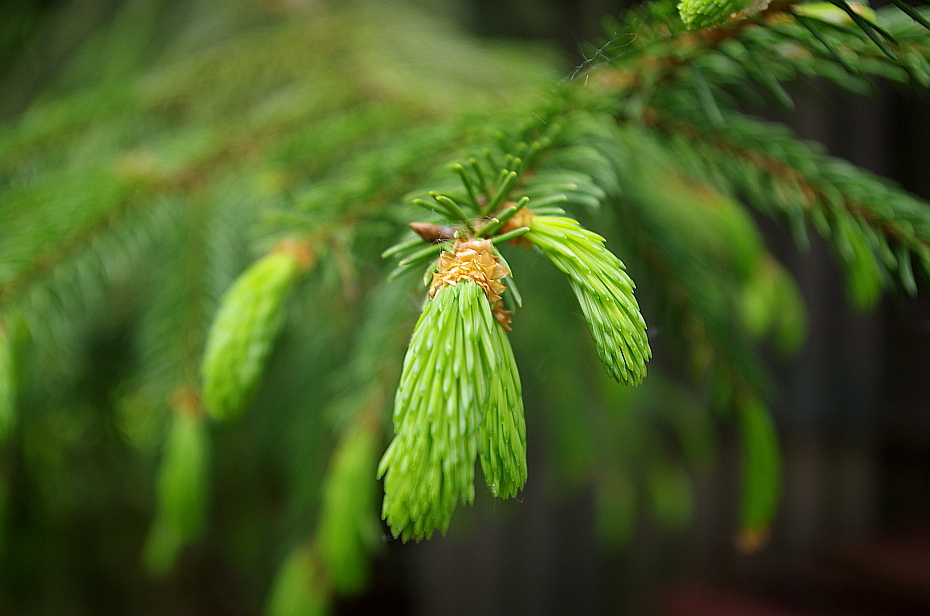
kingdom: Plantae
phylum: Tracheophyta
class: Pinopsida
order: Pinales
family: Pinaceae
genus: Picea
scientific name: Picea abies
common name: Norway spruce
